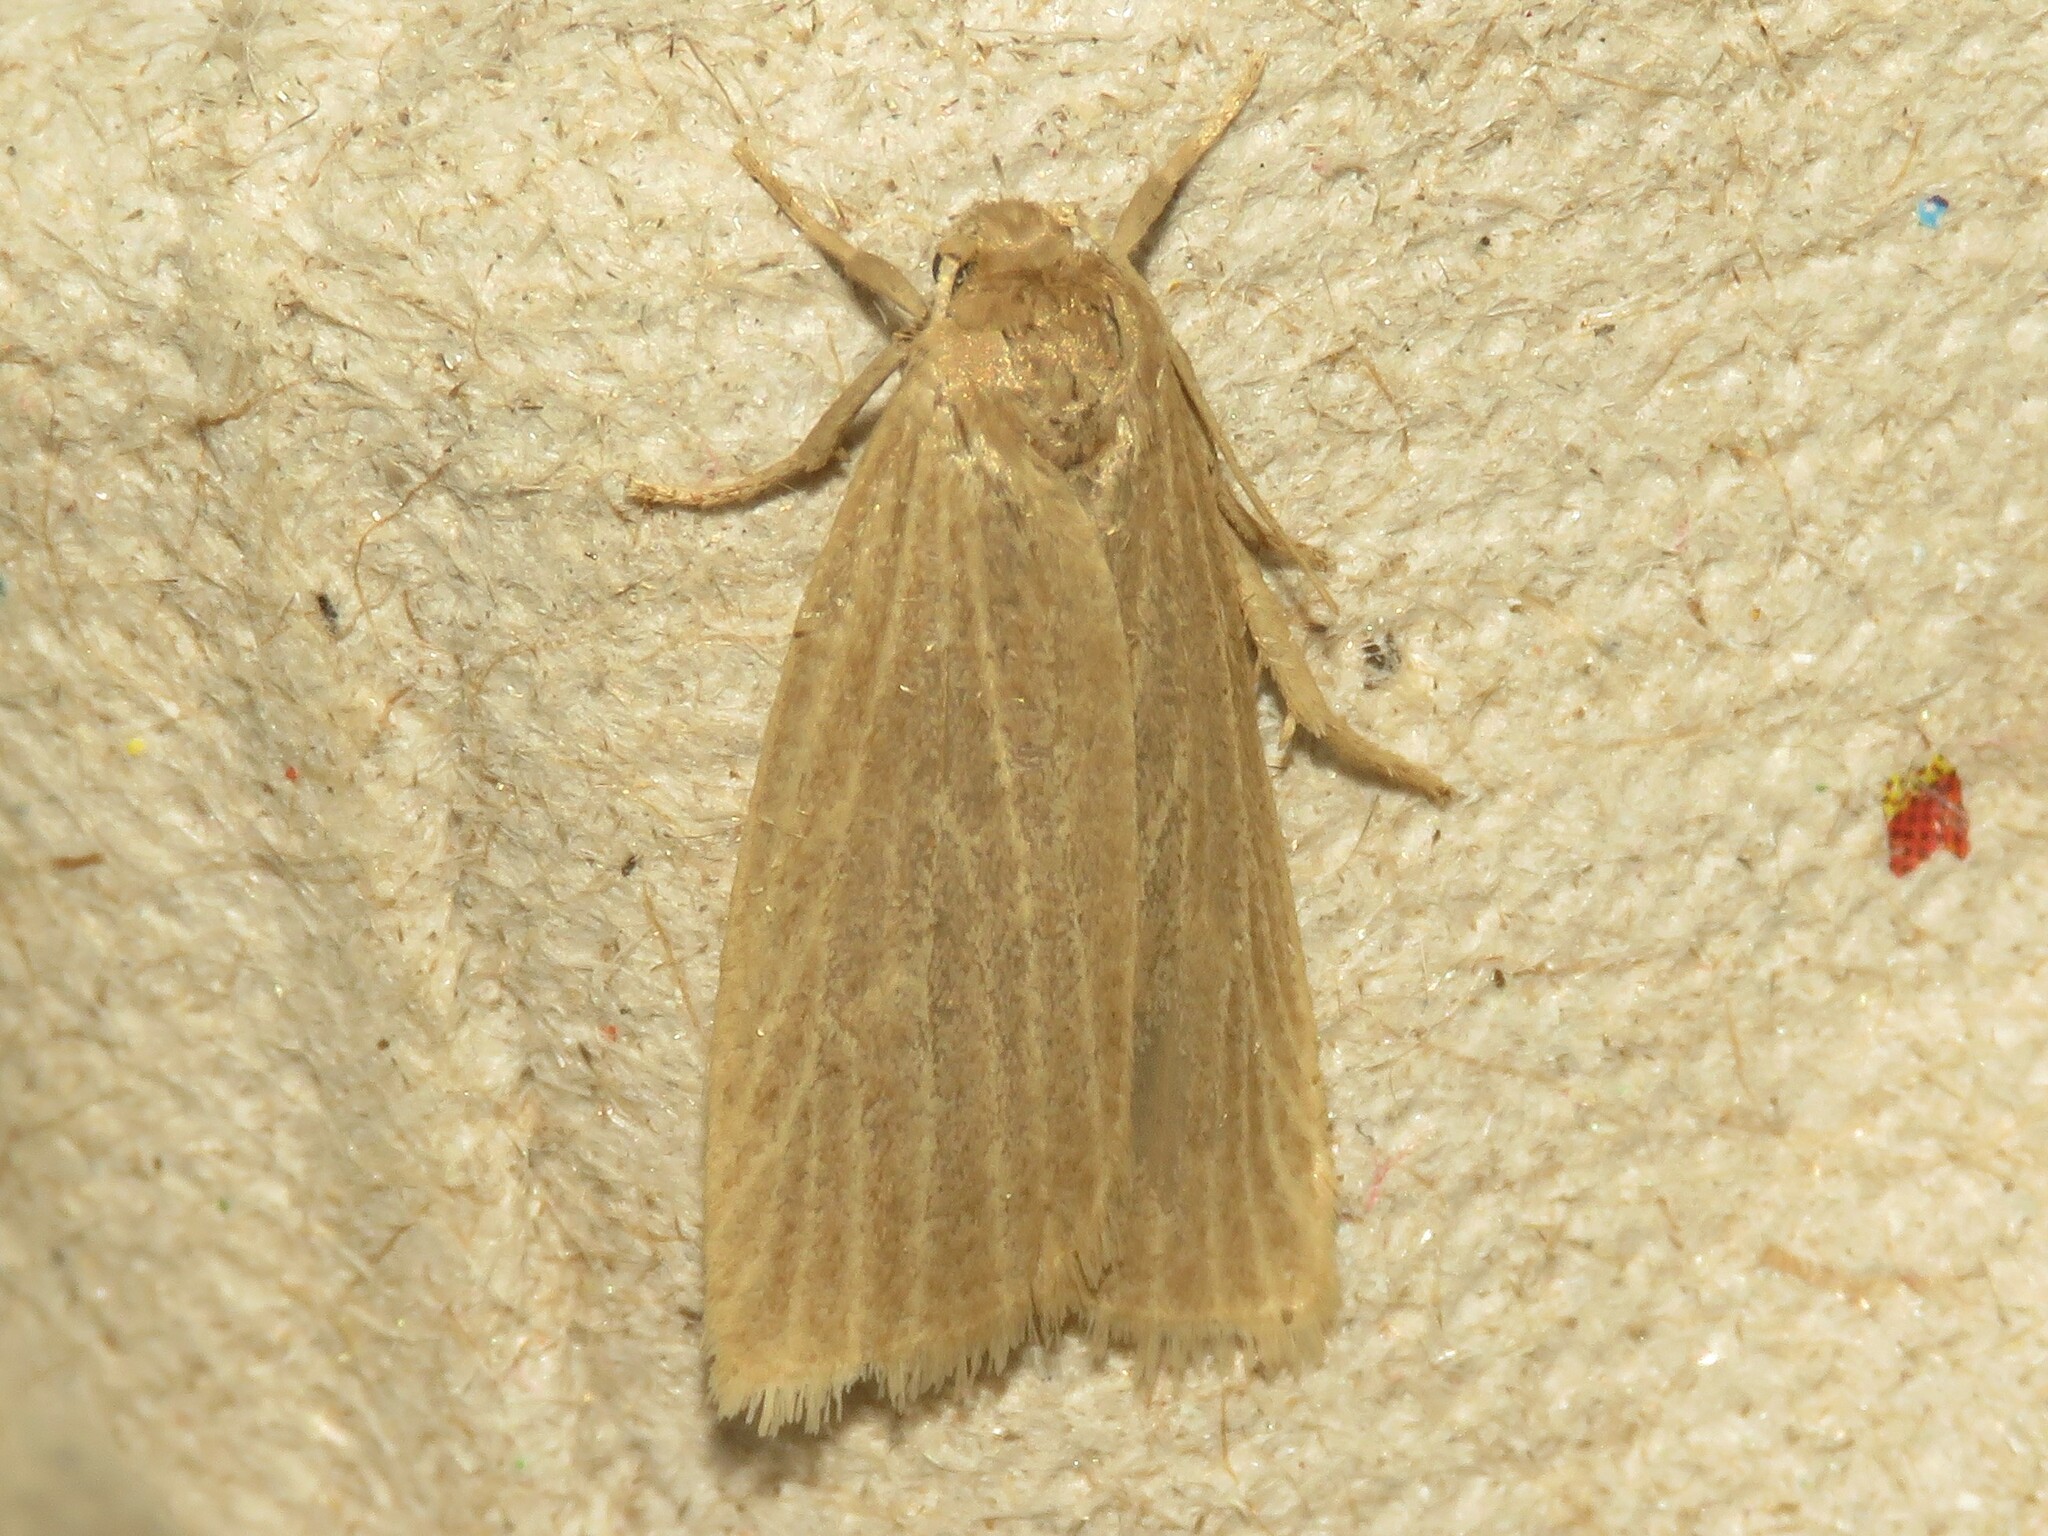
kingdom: Animalia
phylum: Arthropoda
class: Insecta
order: Lepidoptera
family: Erebidae
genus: Crambidia
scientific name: Crambidia pallida
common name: Pale lichen moth
